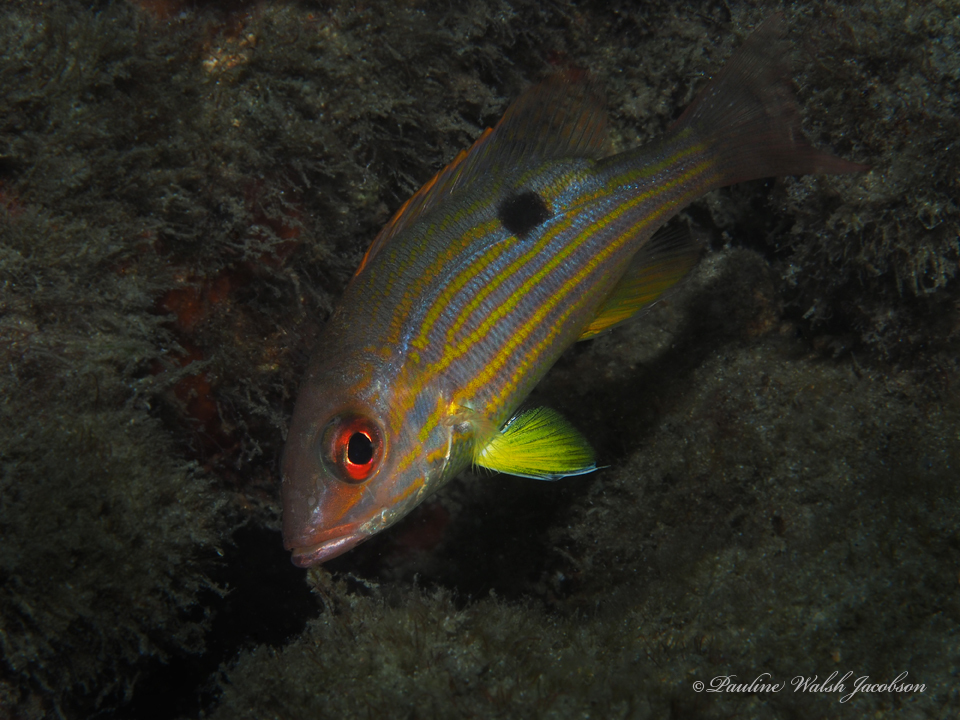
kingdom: Animalia
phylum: Chordata
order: Perciformes
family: Lutjanidae
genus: Lutjanus
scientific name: Lutjanus synagris
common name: Lane snapper
